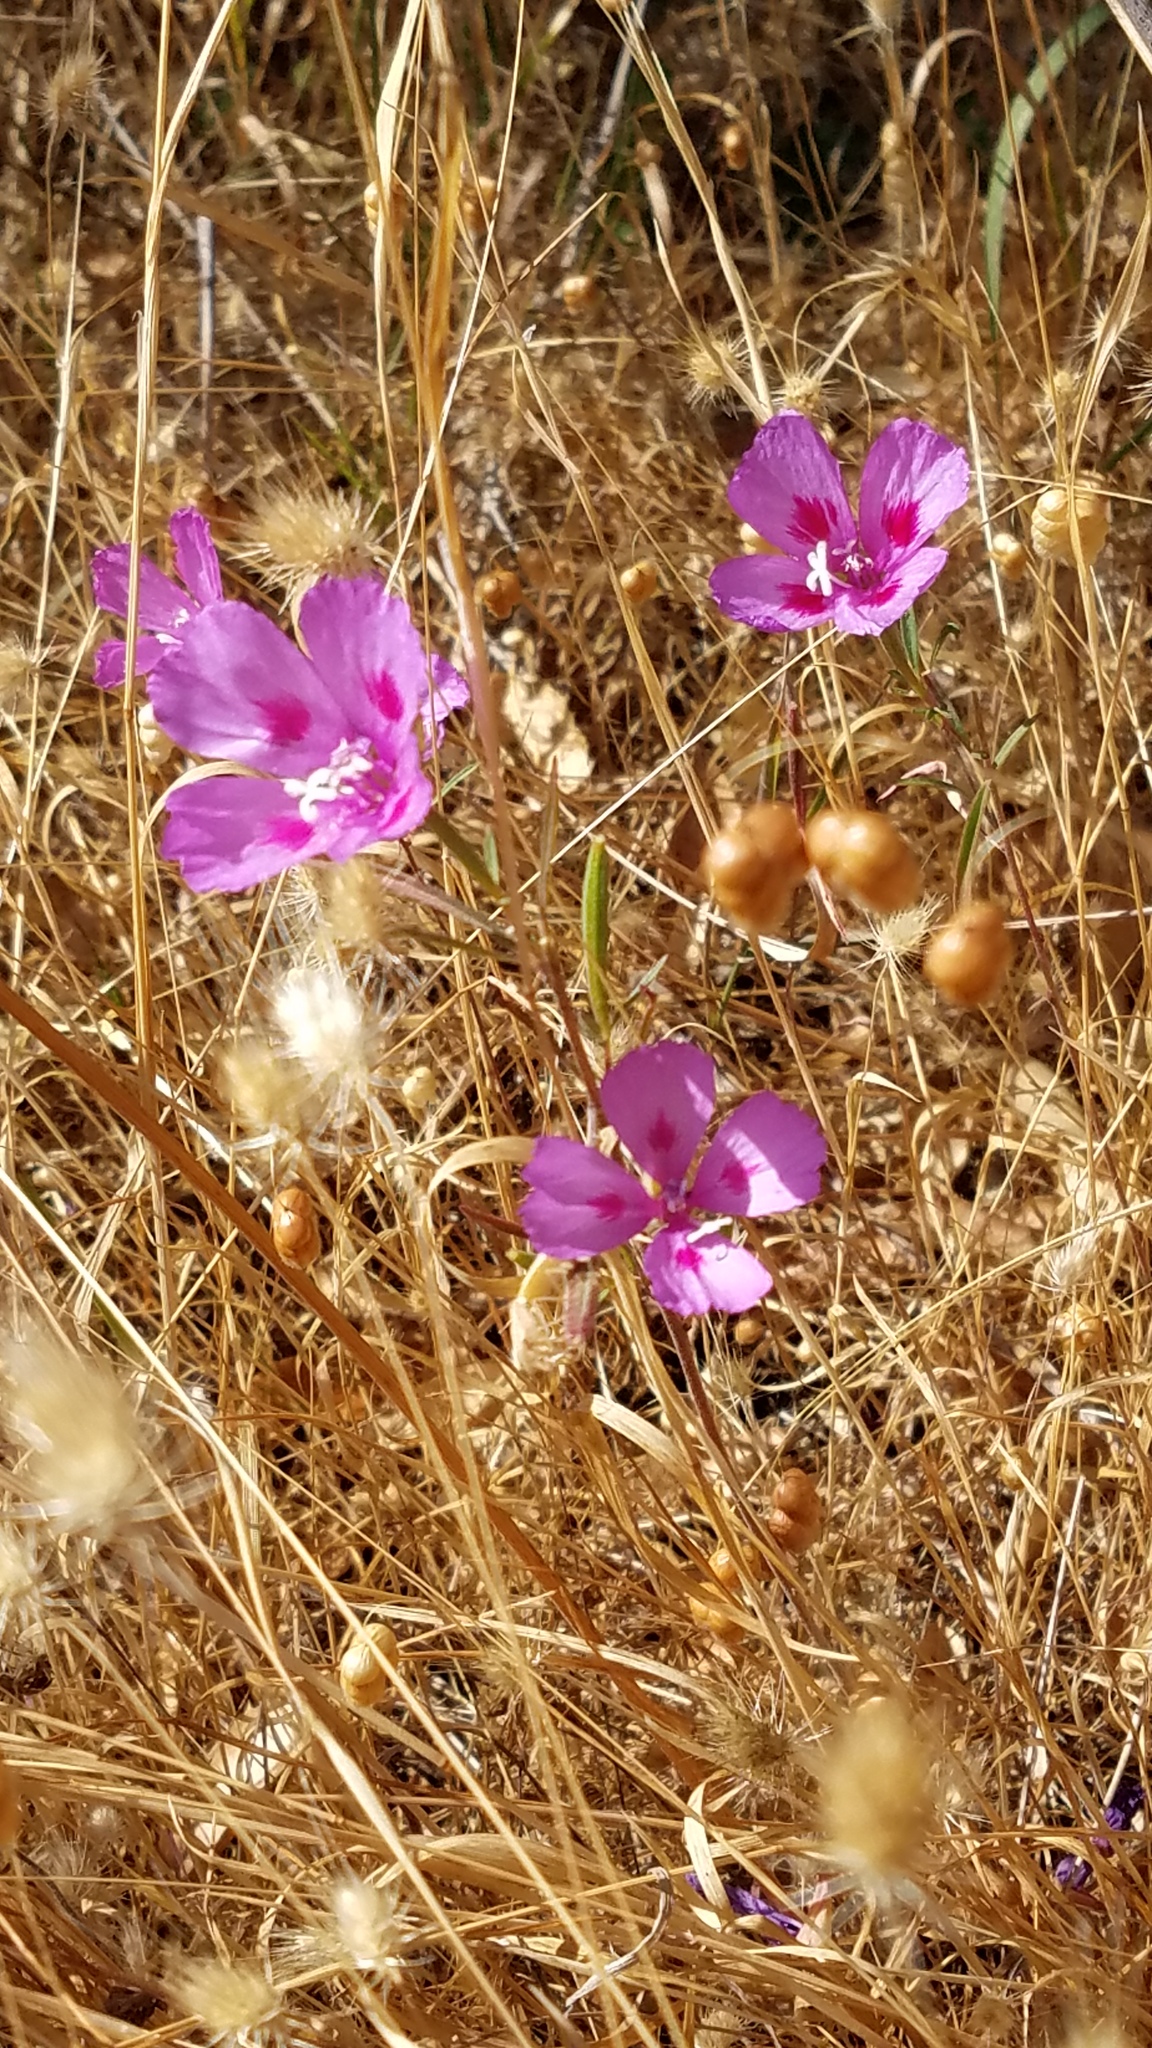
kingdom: Plantae
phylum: Tracheophyta
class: Magnoliopsida
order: Myrtales
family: Onagraceae
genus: Clarkia
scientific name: Clarkia amoena
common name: Godetia
